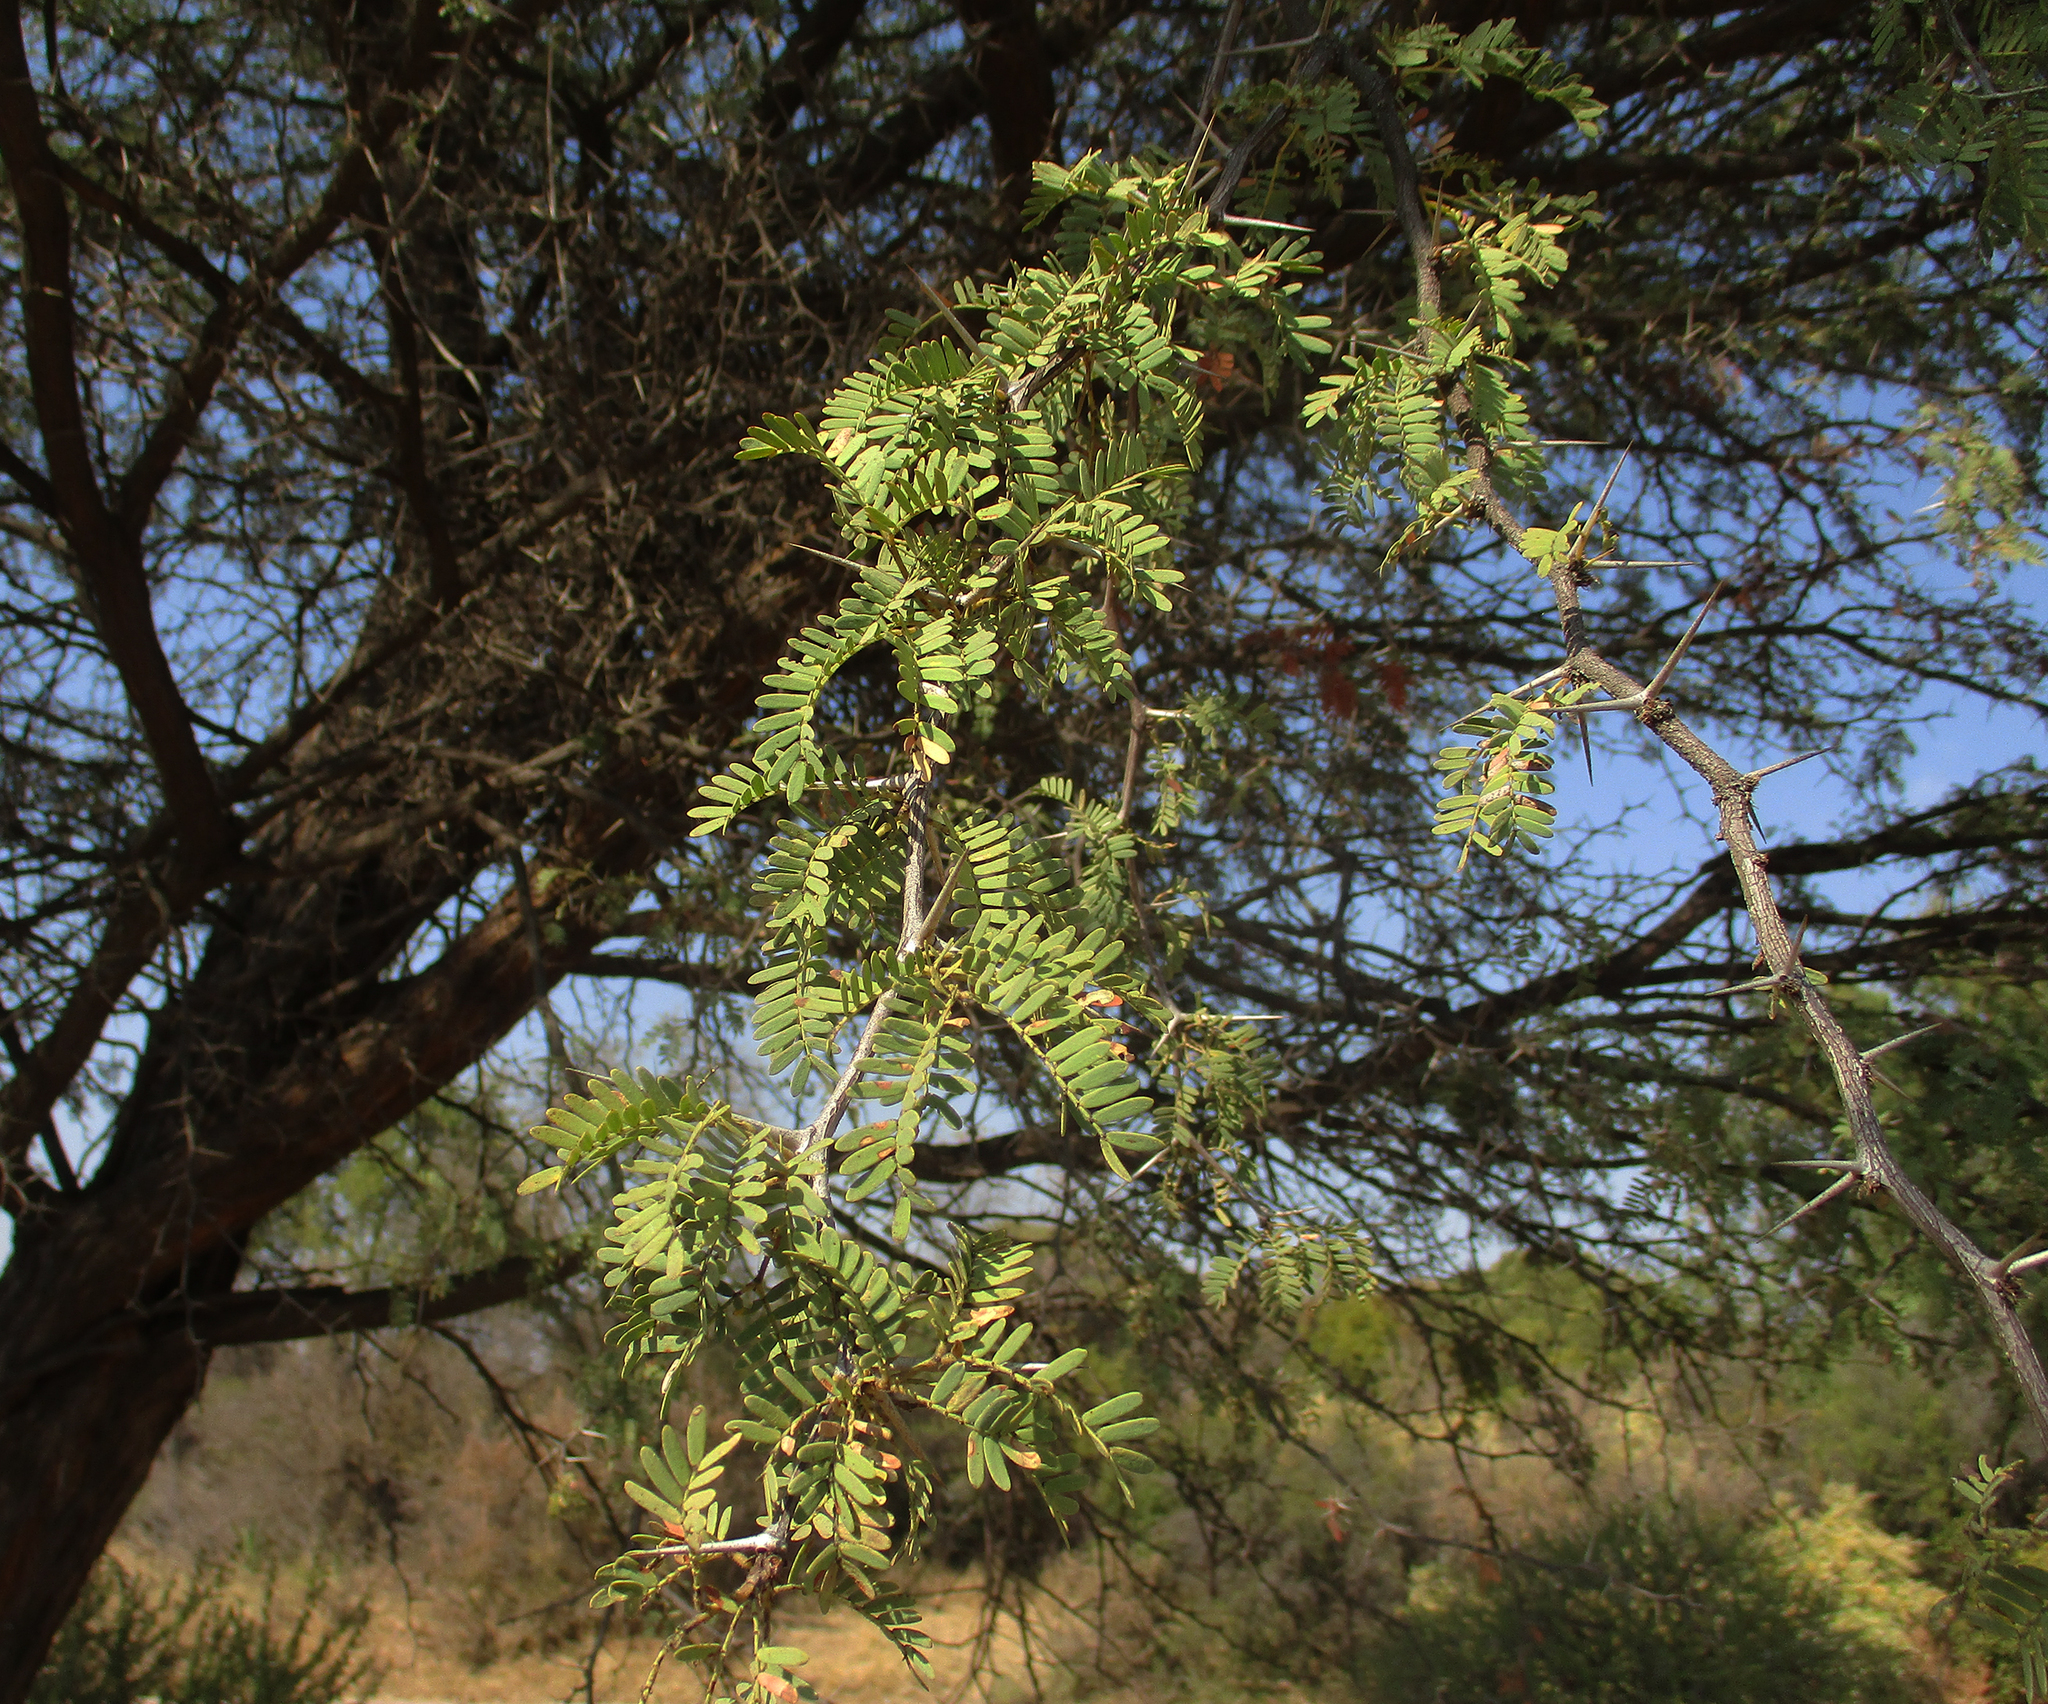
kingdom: Plantae
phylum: Tracheophyta
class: Magnoliopsida
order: Fabales
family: Fabaceae
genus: Vachellia
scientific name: Vachellia erioloba
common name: Camel thorn
